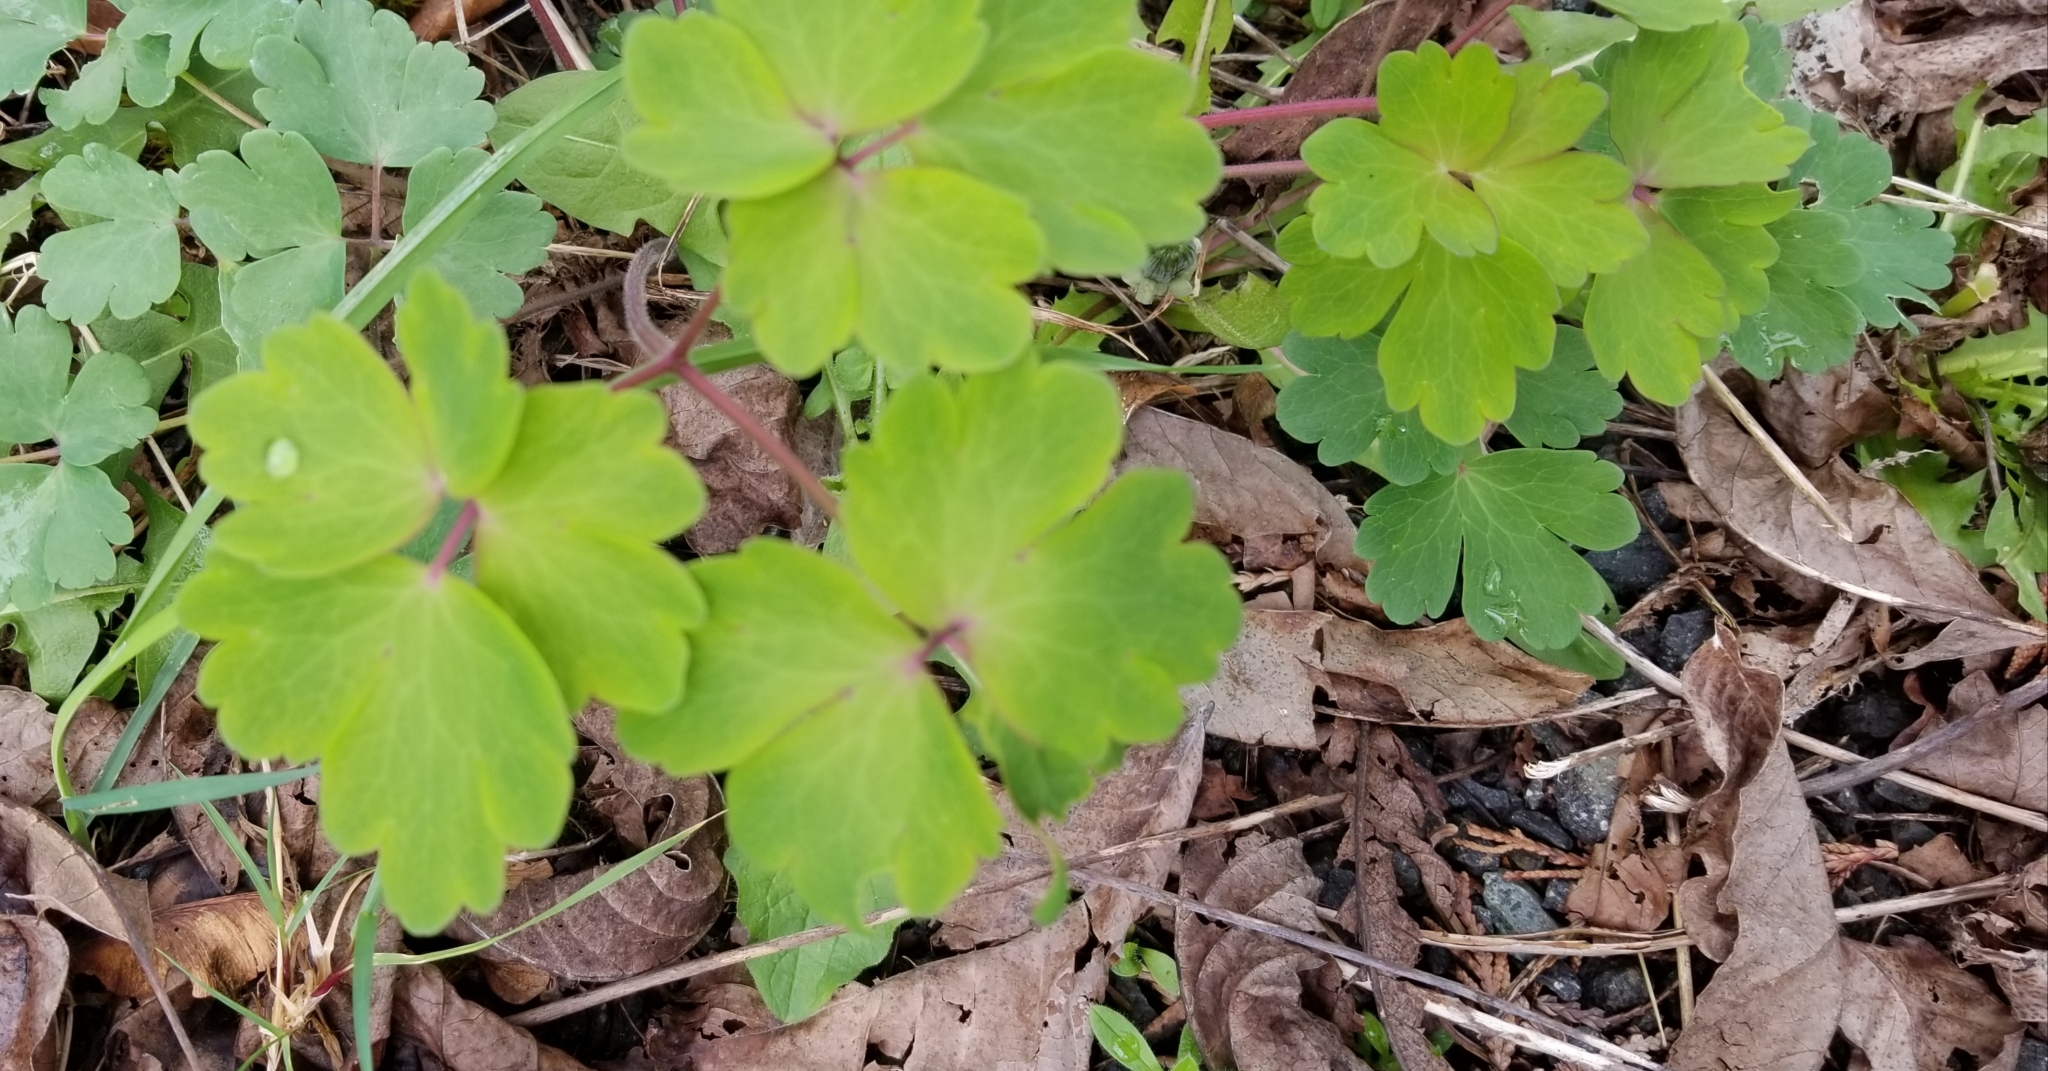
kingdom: Plantae
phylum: Tracheophyta
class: Magnoliopsida
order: Ranunculales
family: Ranunculaceae
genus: Aquilegia
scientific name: Aquilegia vulgaris
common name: Columbine
